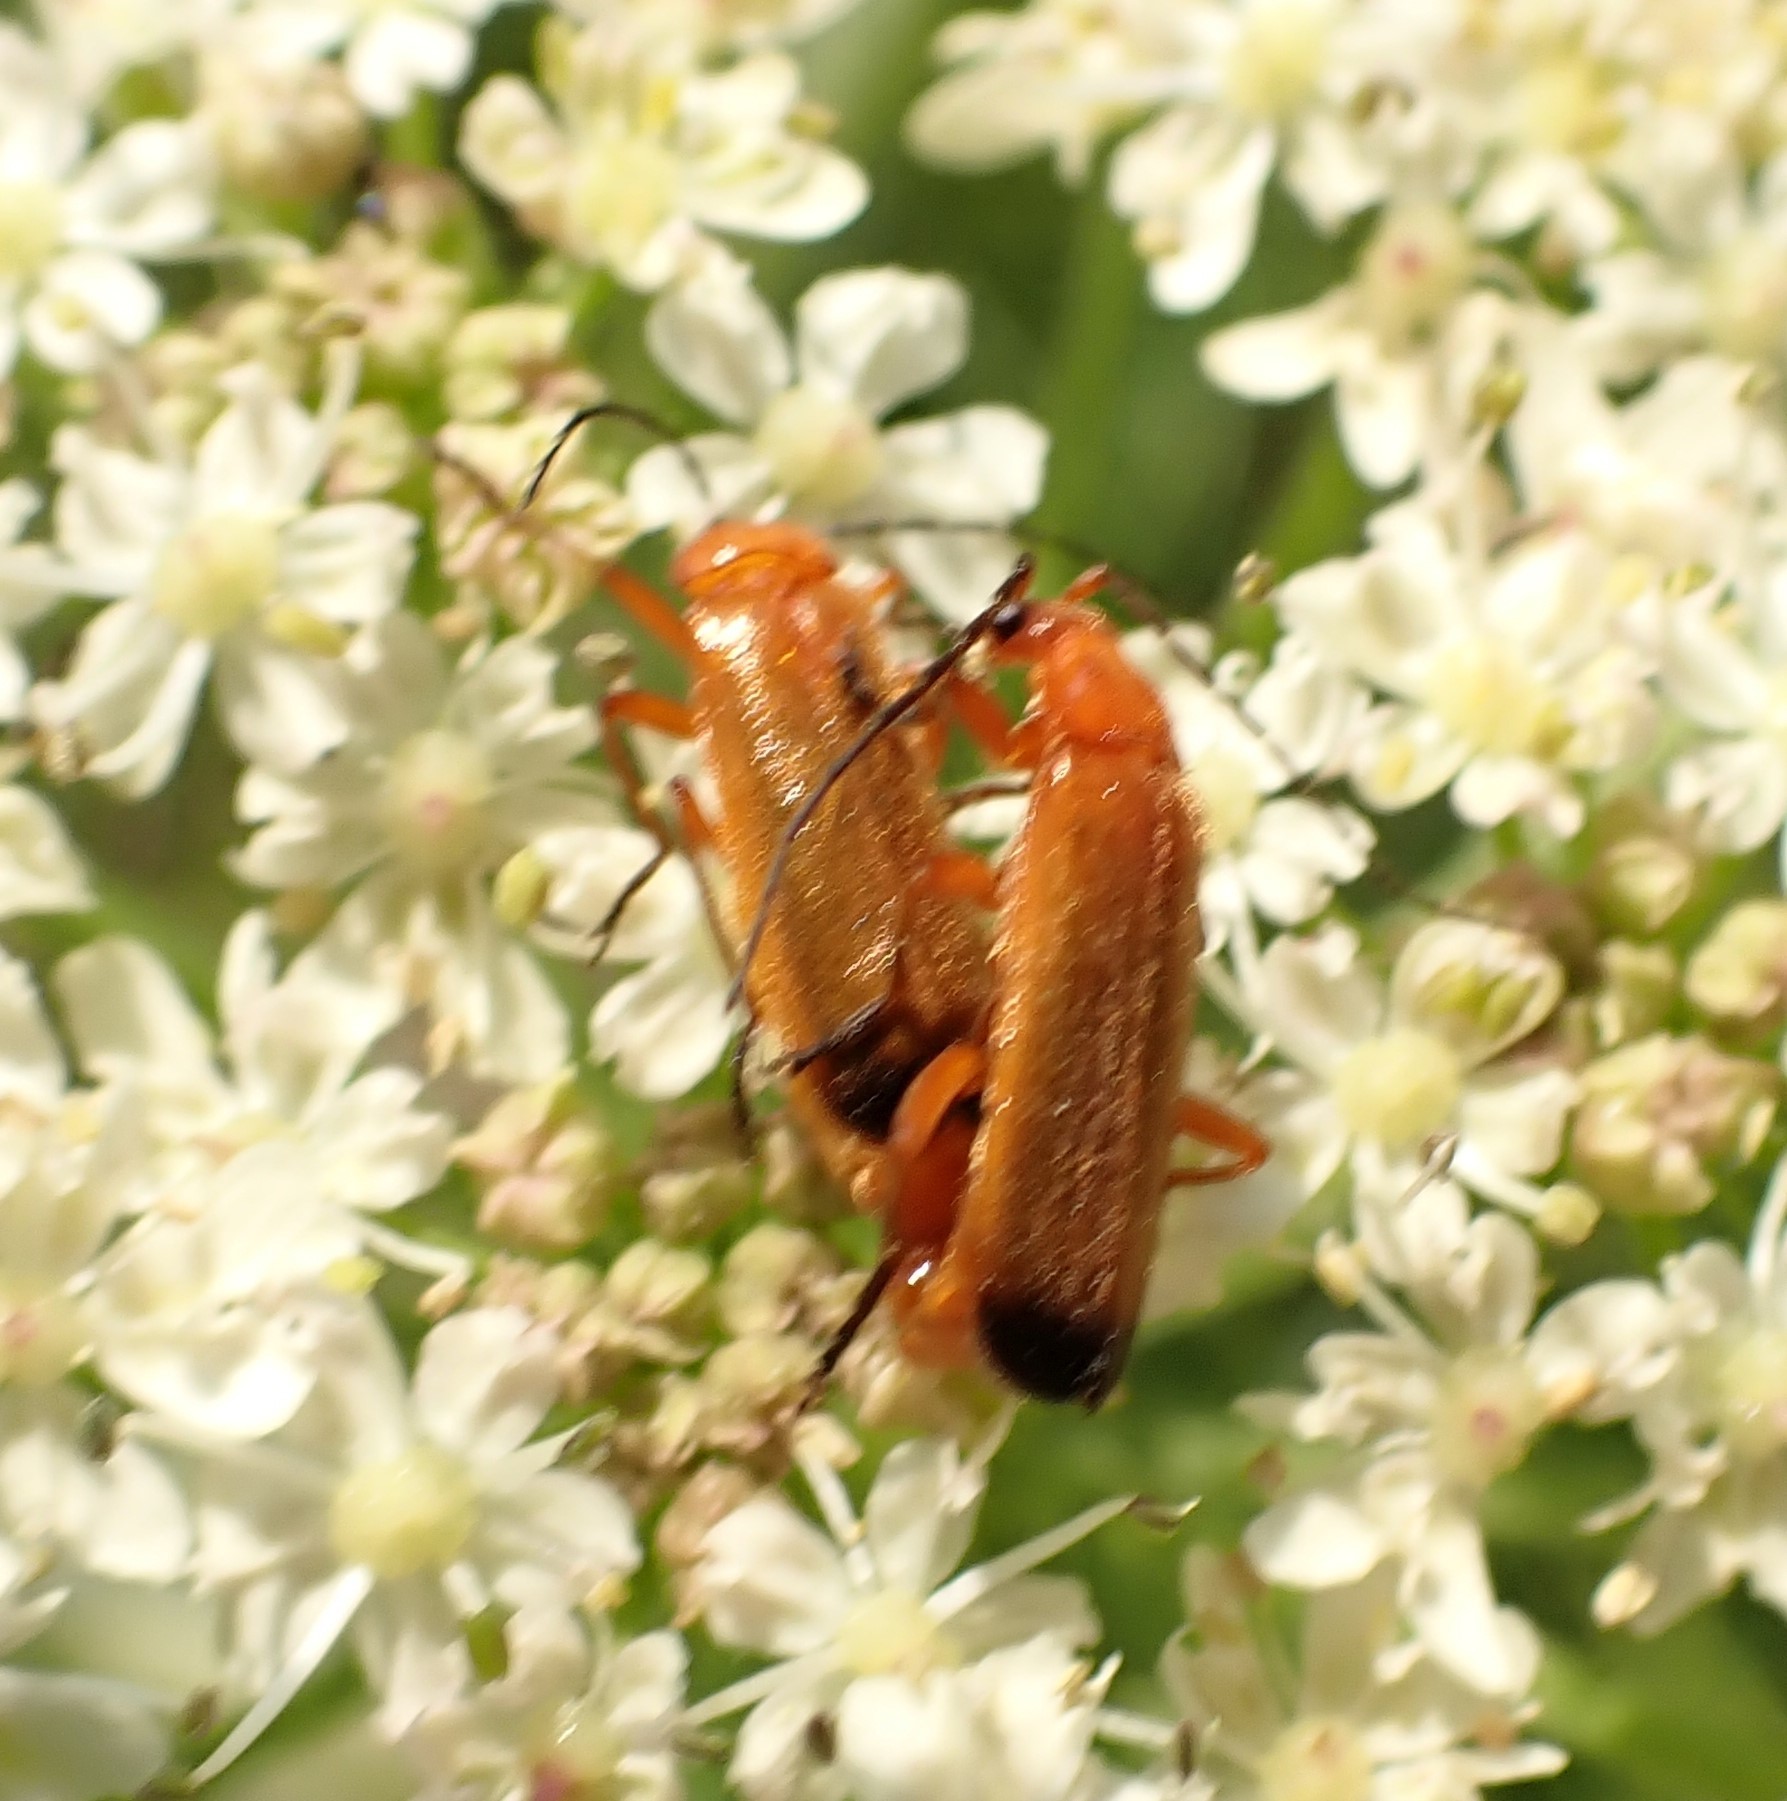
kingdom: Animalia
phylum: Arthropoda
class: Insecta
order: Coleoptera
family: Cantharidae
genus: Rhagonycha
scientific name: Rhagonycha fulva
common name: Common red soldier beetle
